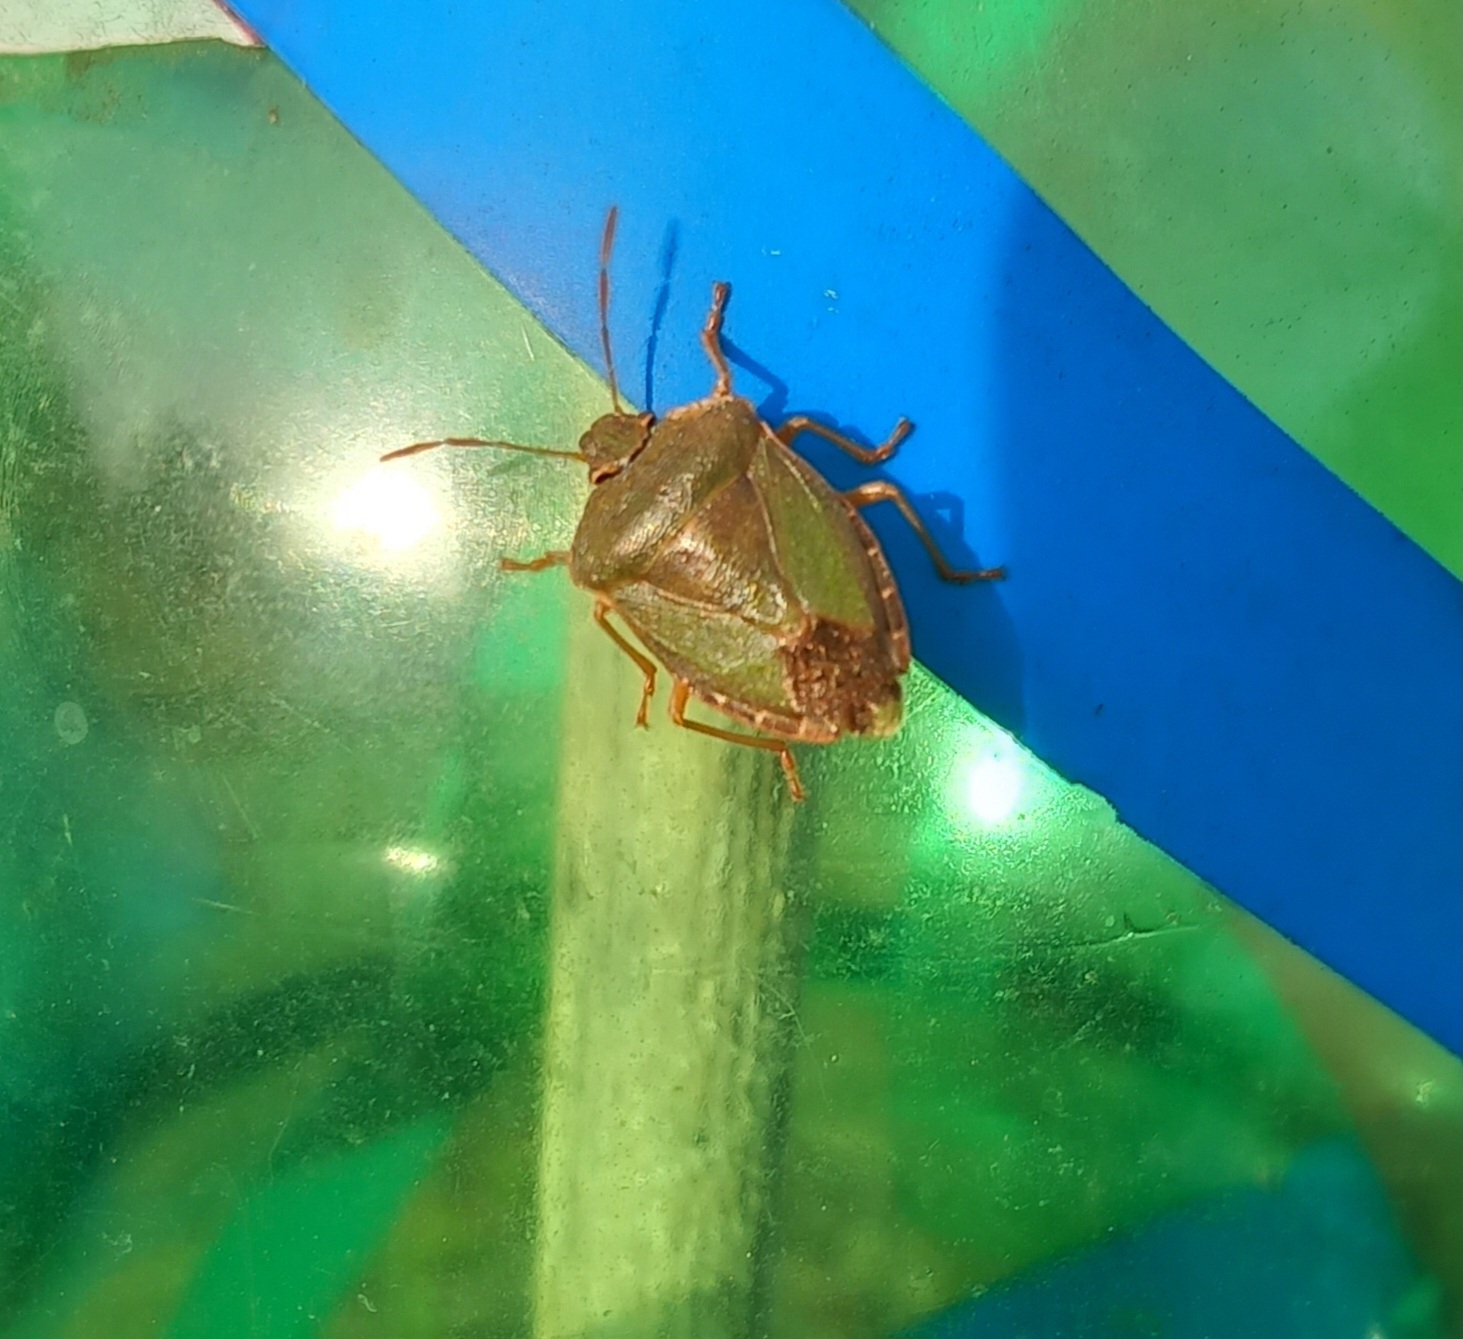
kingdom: Animalia
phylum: Arthropoda
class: Insecta
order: Hemiptera
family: Pentatomidae
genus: Palomena
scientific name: Palomena prasina
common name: Green shieldbug
